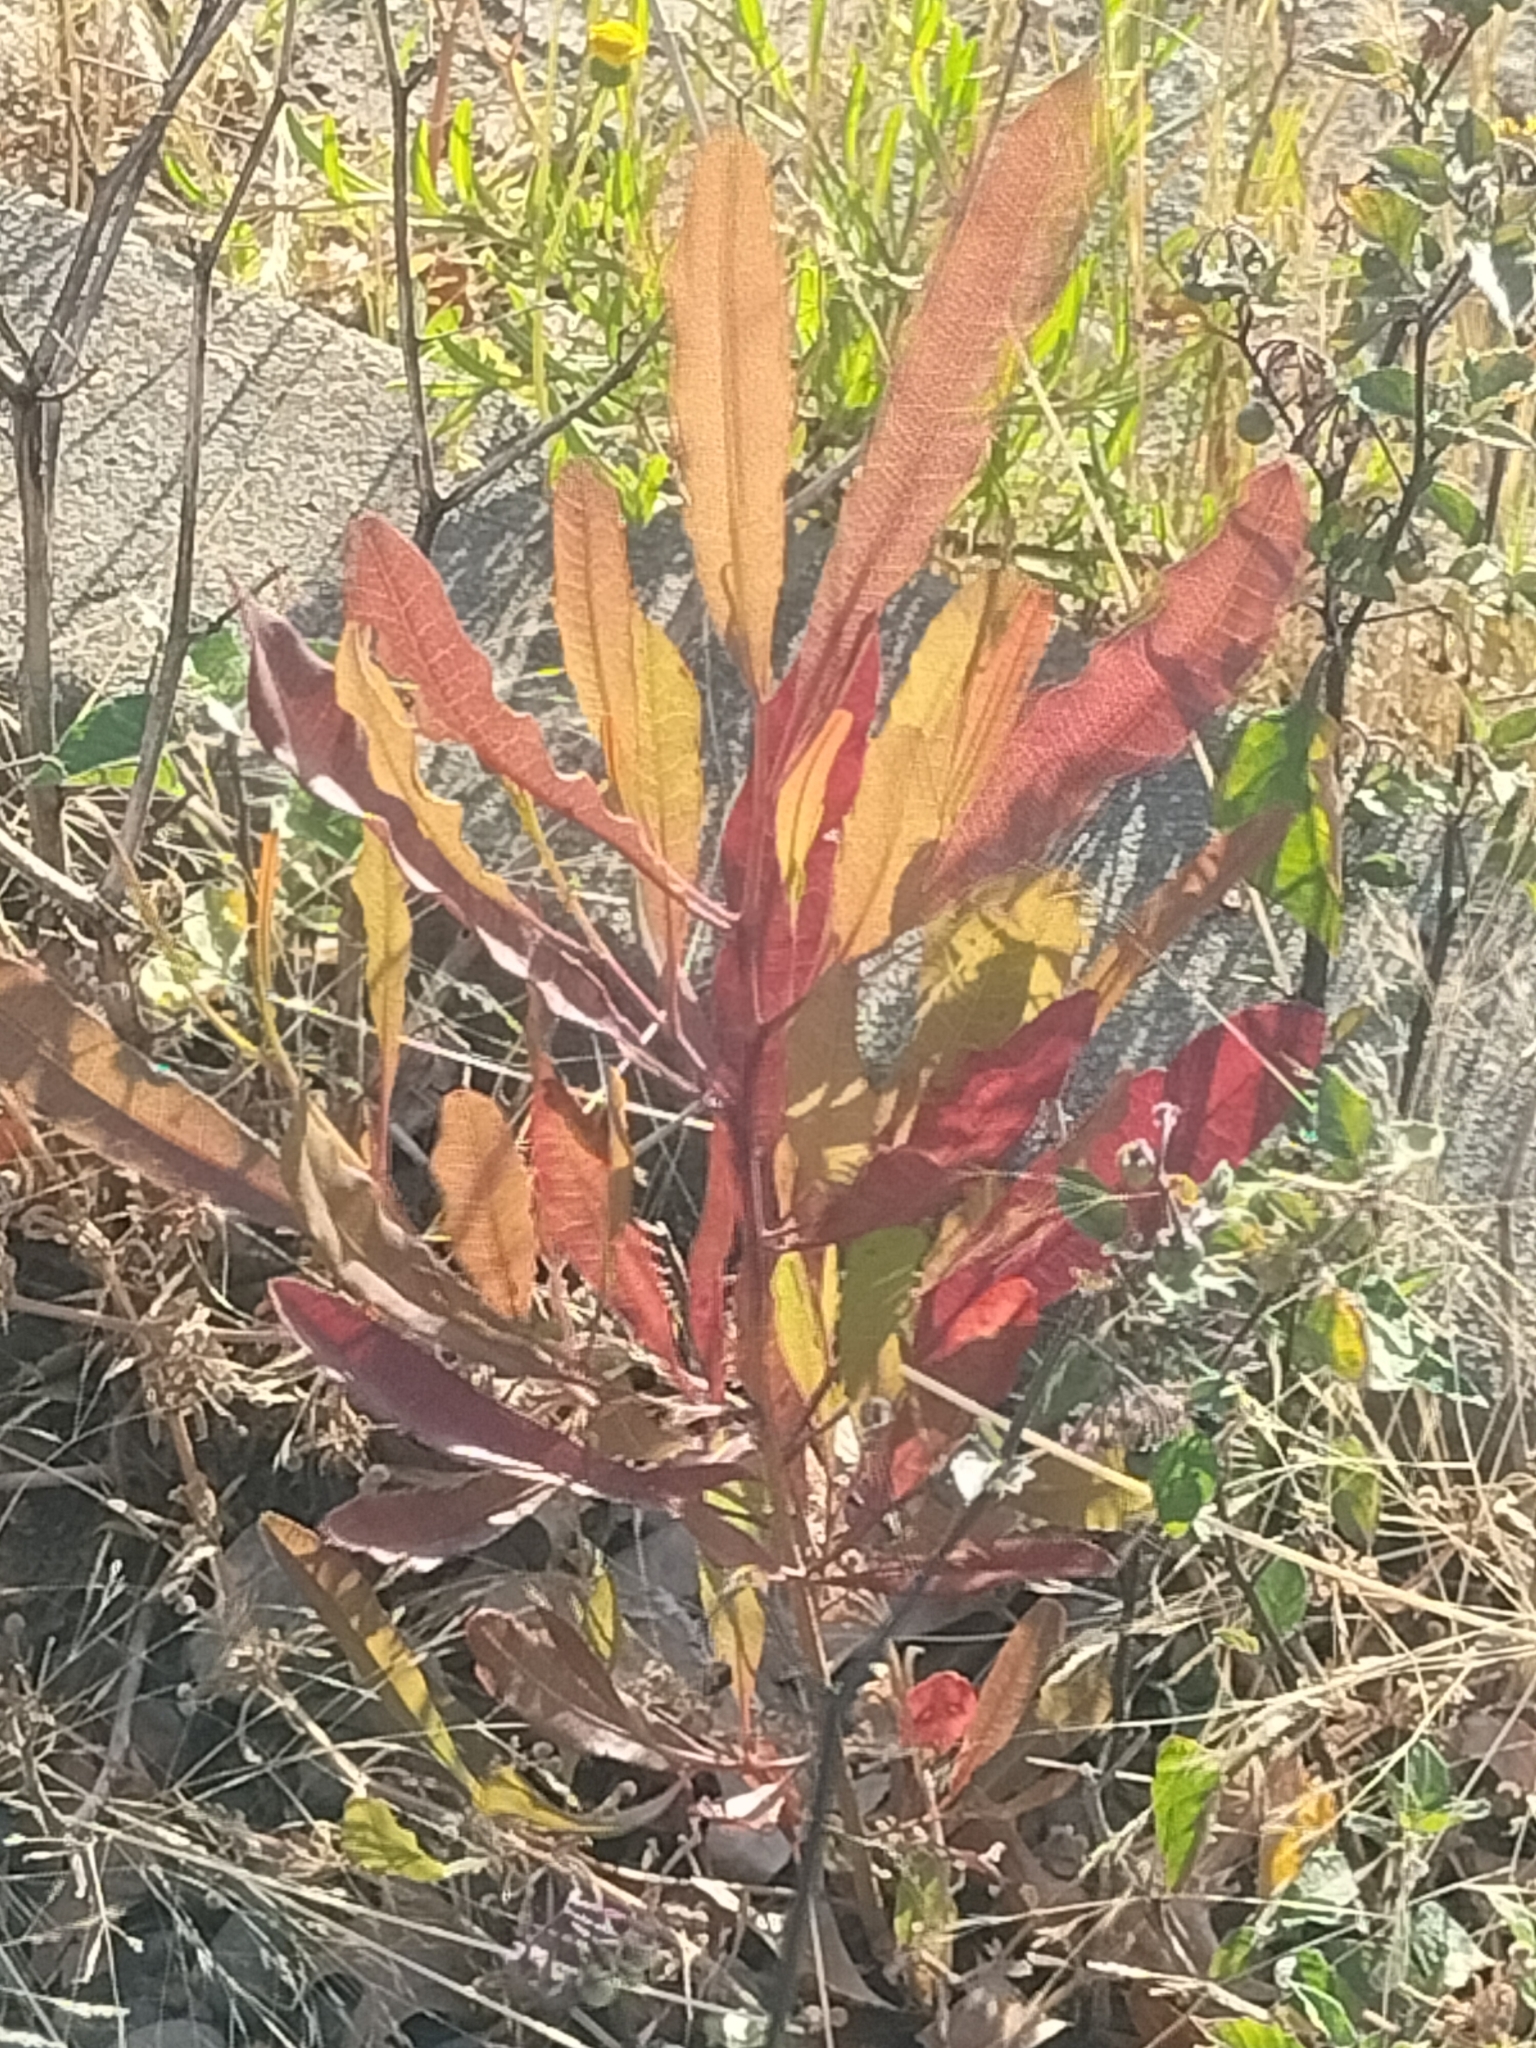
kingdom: Plantae
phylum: Tracheophyta
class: Magnoliopsida
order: Sapindales
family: Sapindaceae
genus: Dodonaea
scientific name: Dodonaea viscosa
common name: Hopbush
